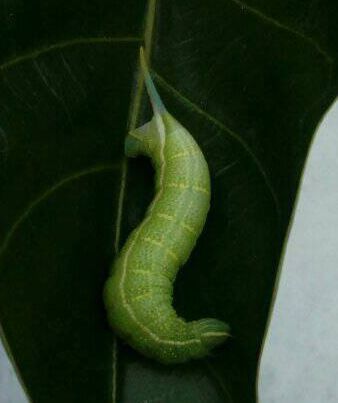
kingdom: Animalia
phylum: Arthropoda
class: Insecta
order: Lepidoptera
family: Sphingidae
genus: Macroglossum
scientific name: Macroglossum sitiene
